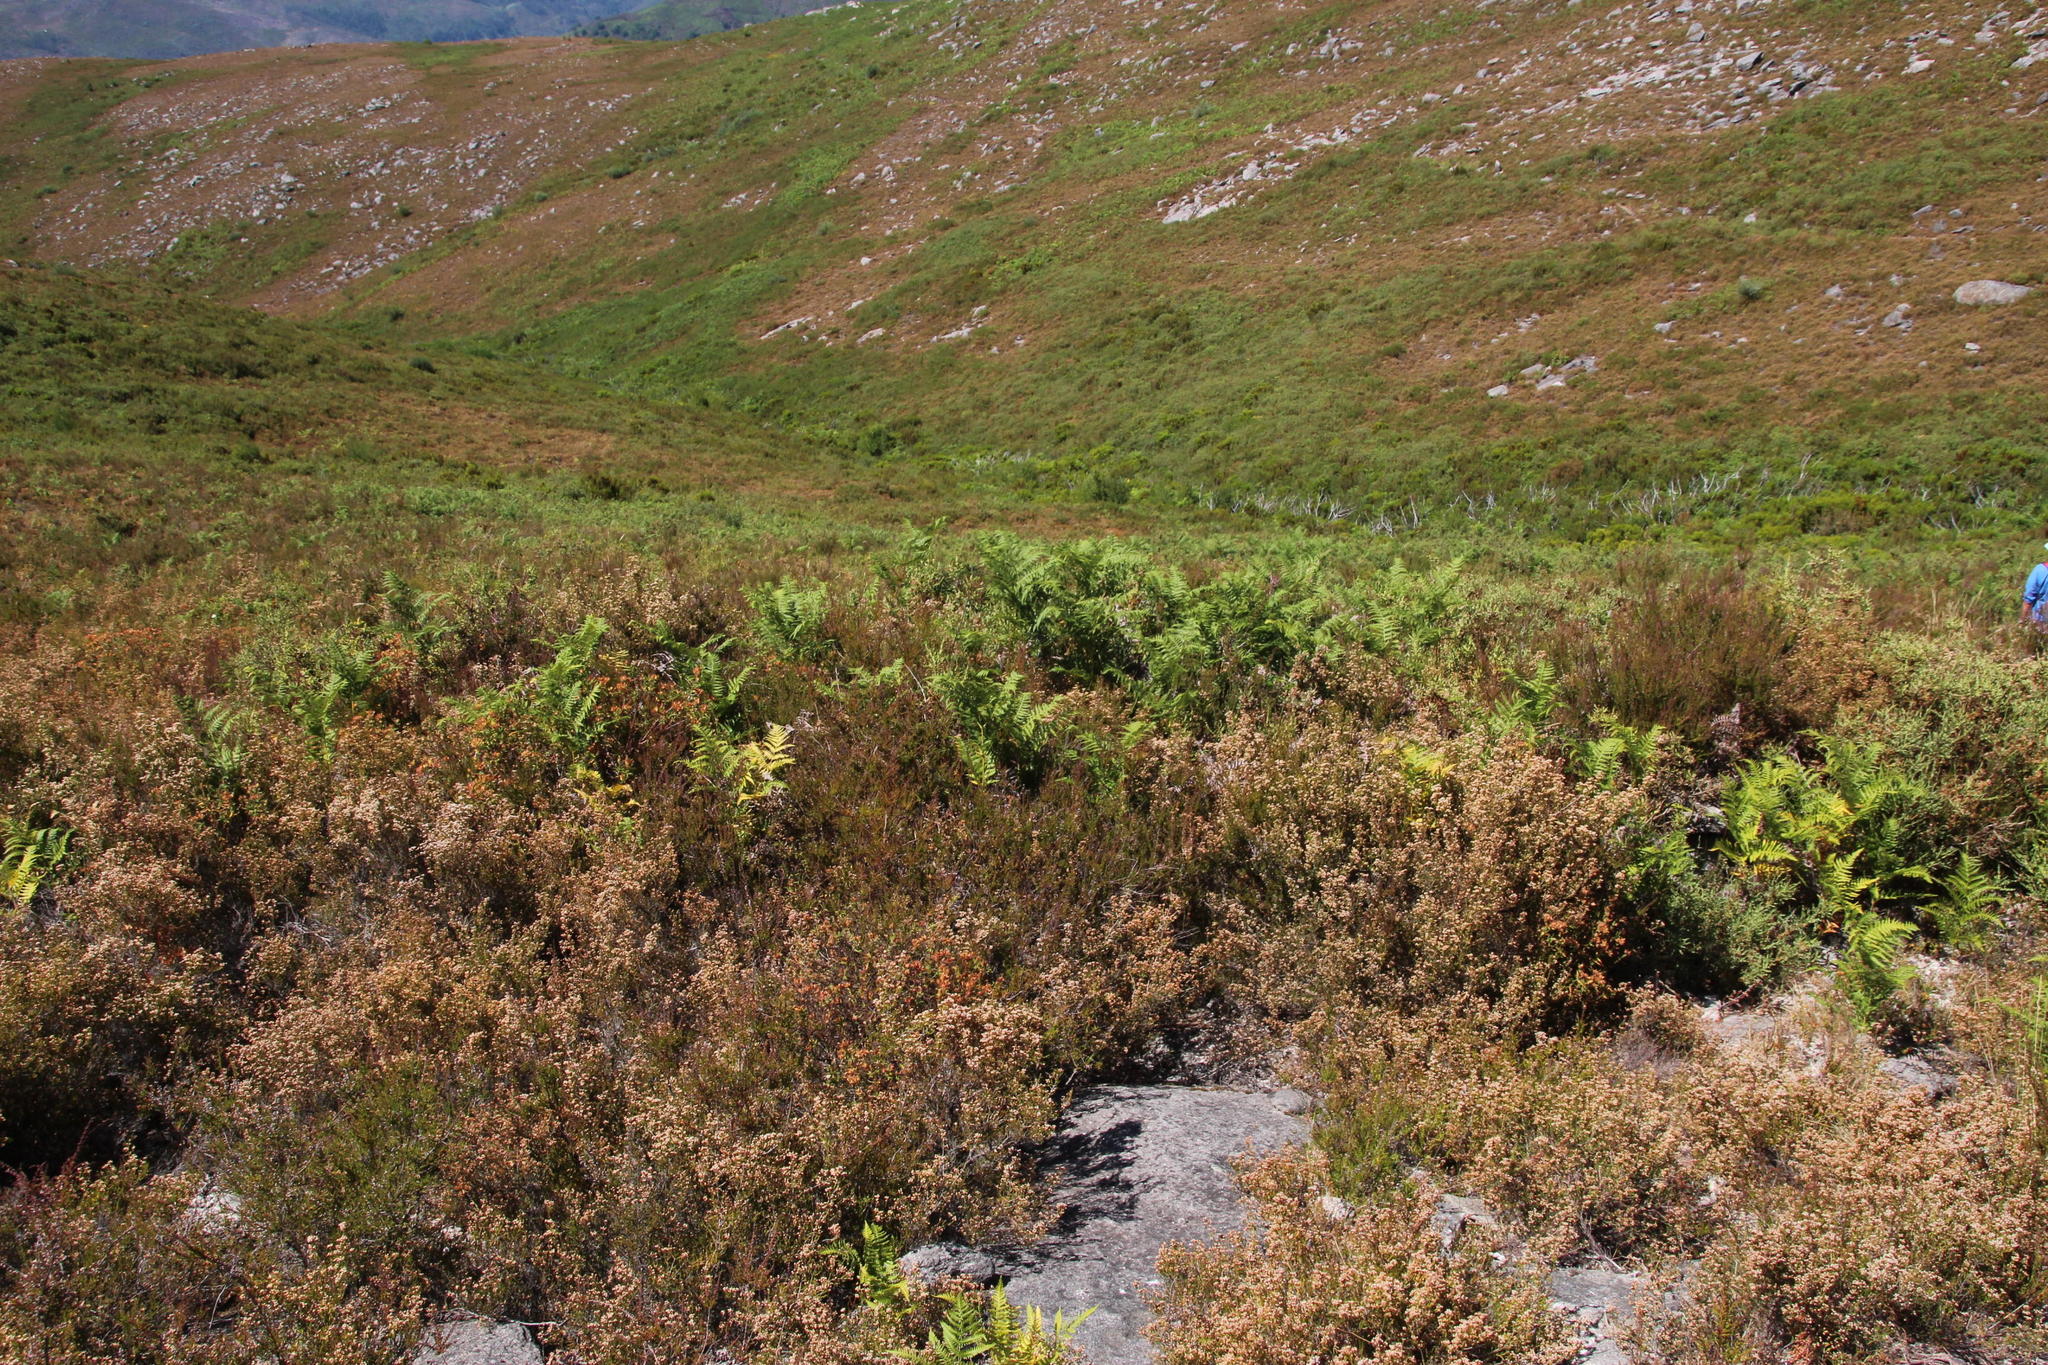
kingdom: Plantae
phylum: Tracheophyta
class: Polypodiopsida
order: Polypodiales
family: Dennstaedtiaceae
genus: Pteridium
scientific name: Pteridium aquilinum
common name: Bracken
